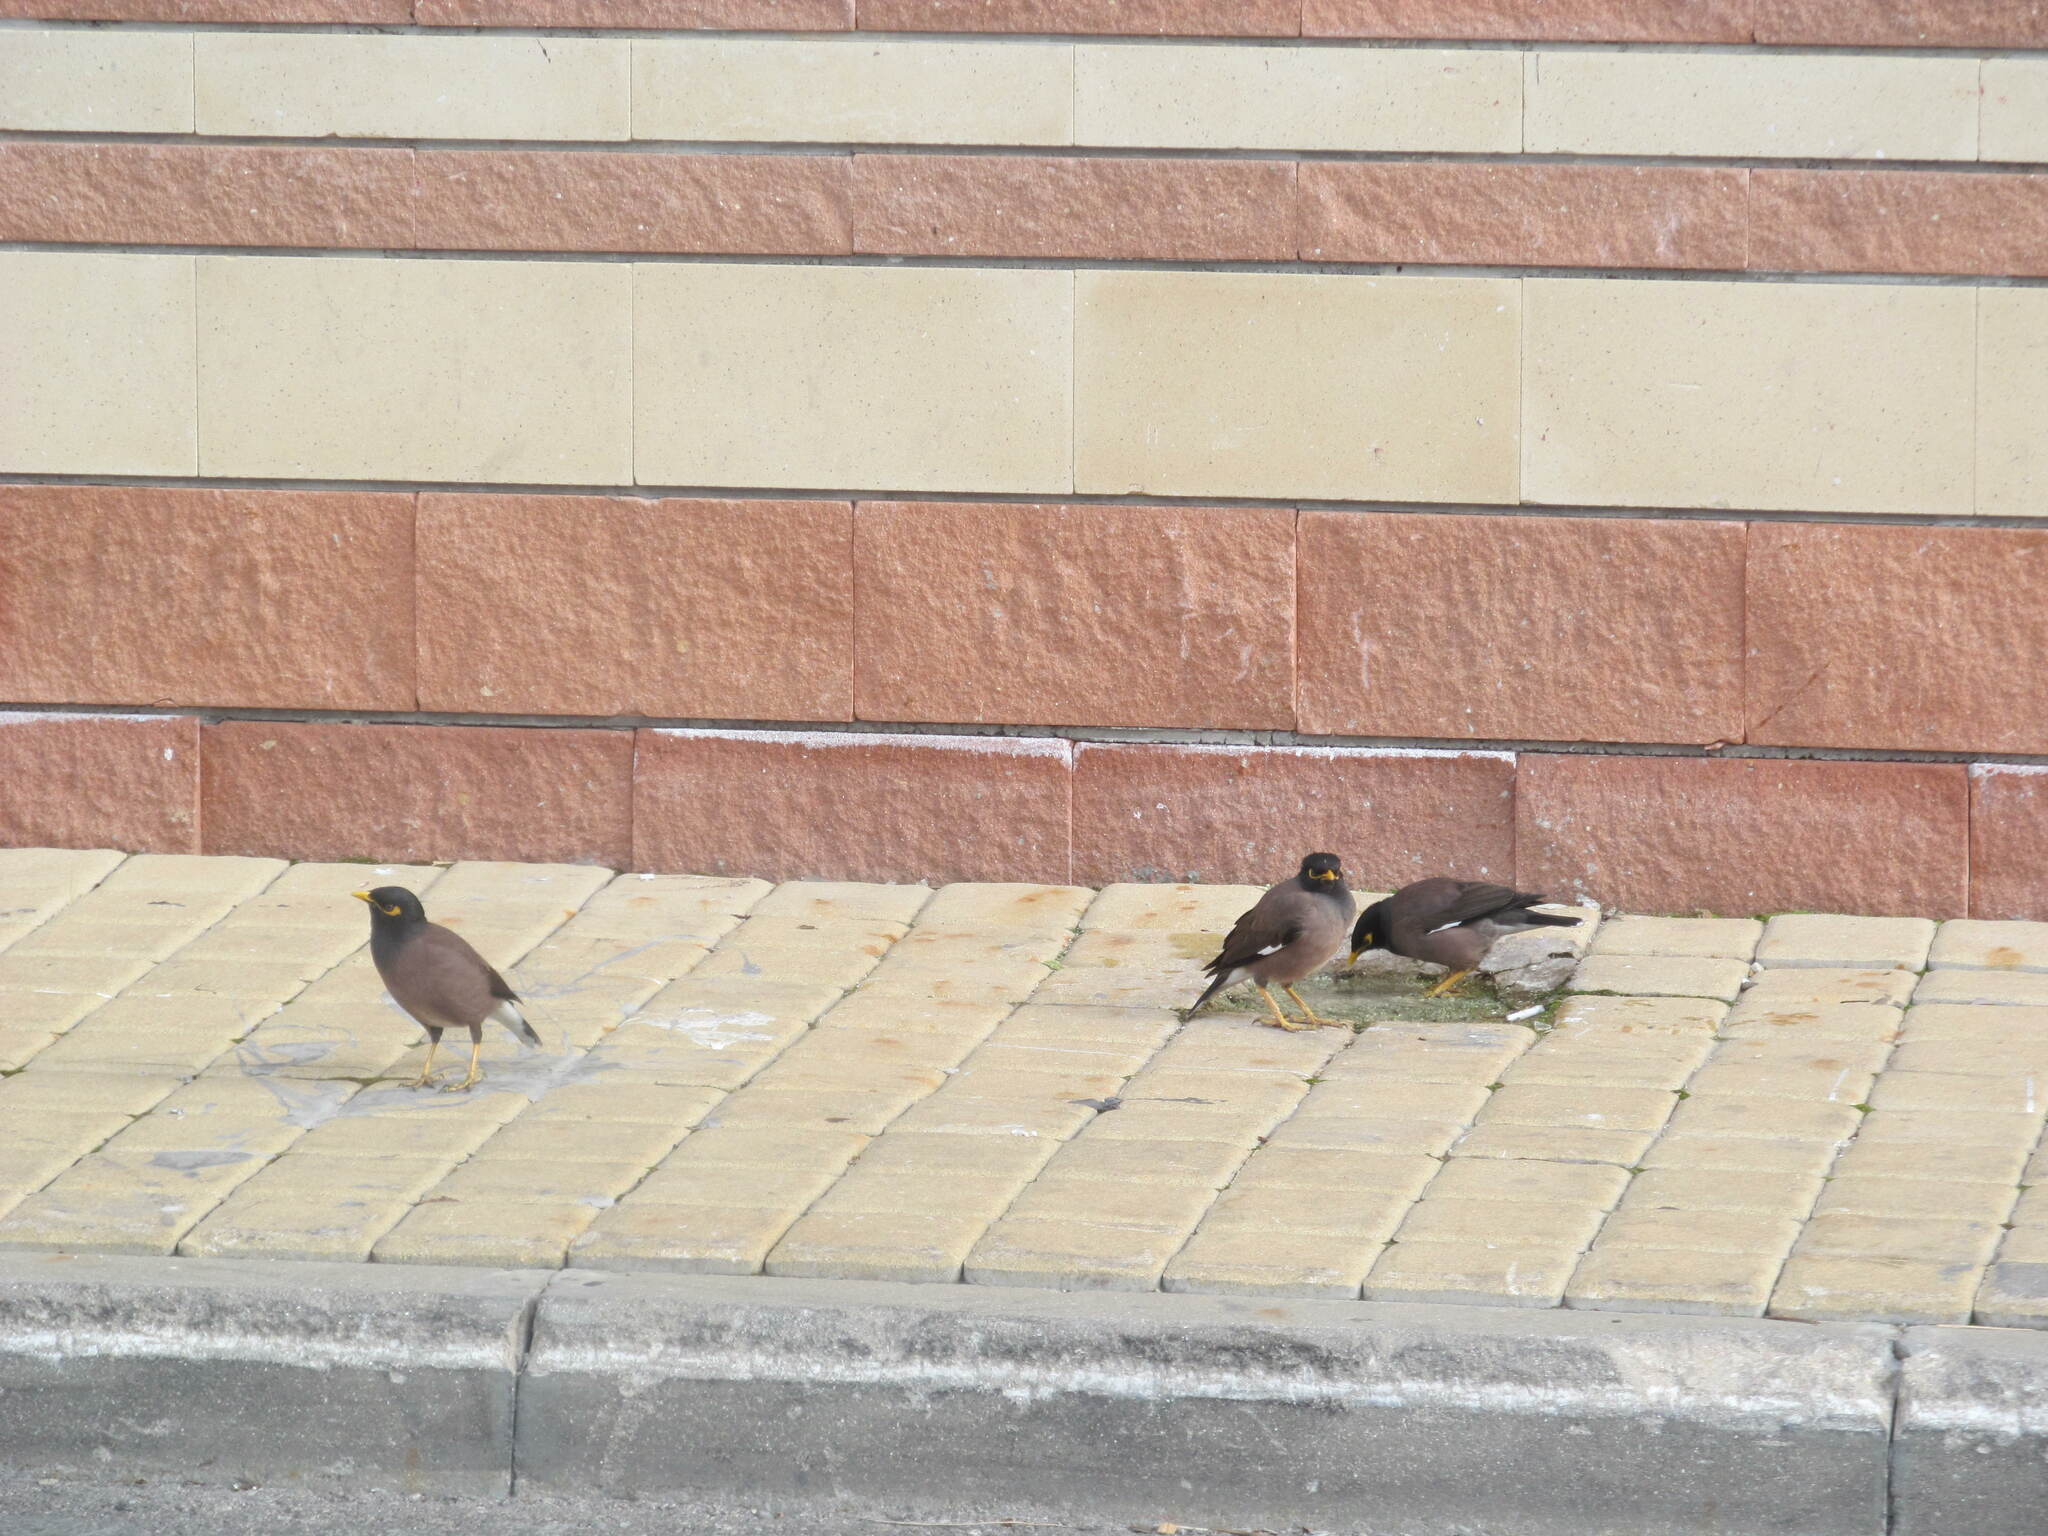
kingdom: Animalia
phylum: Chordata
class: Aves
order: Passeriformes
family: Sturnidae
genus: Acridotheres
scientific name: Acridotheres tristis
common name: Common myna
